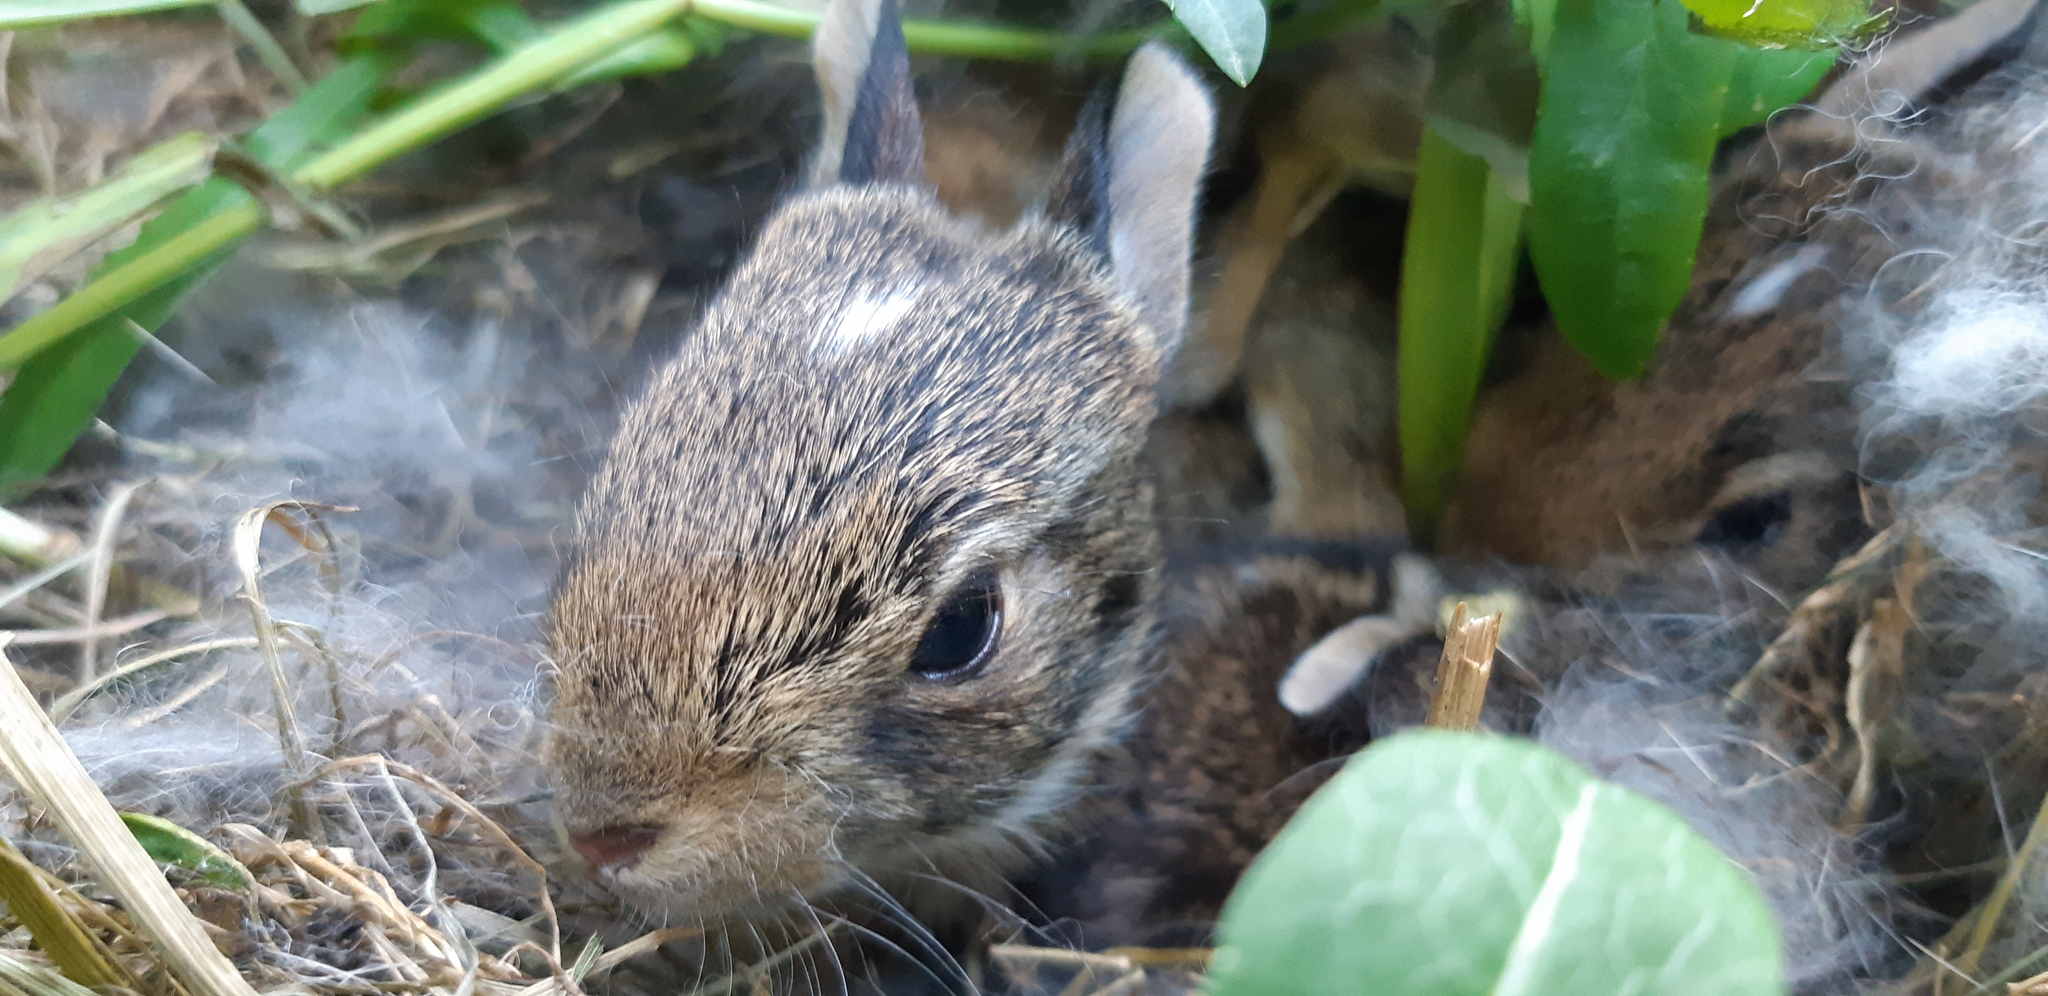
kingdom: Animalia
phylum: Chordata
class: Mammalia
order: Lagomorpha
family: Leporidae
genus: Sylvilagus
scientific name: Sylvilagus floridanus
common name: Eastern cottontail
